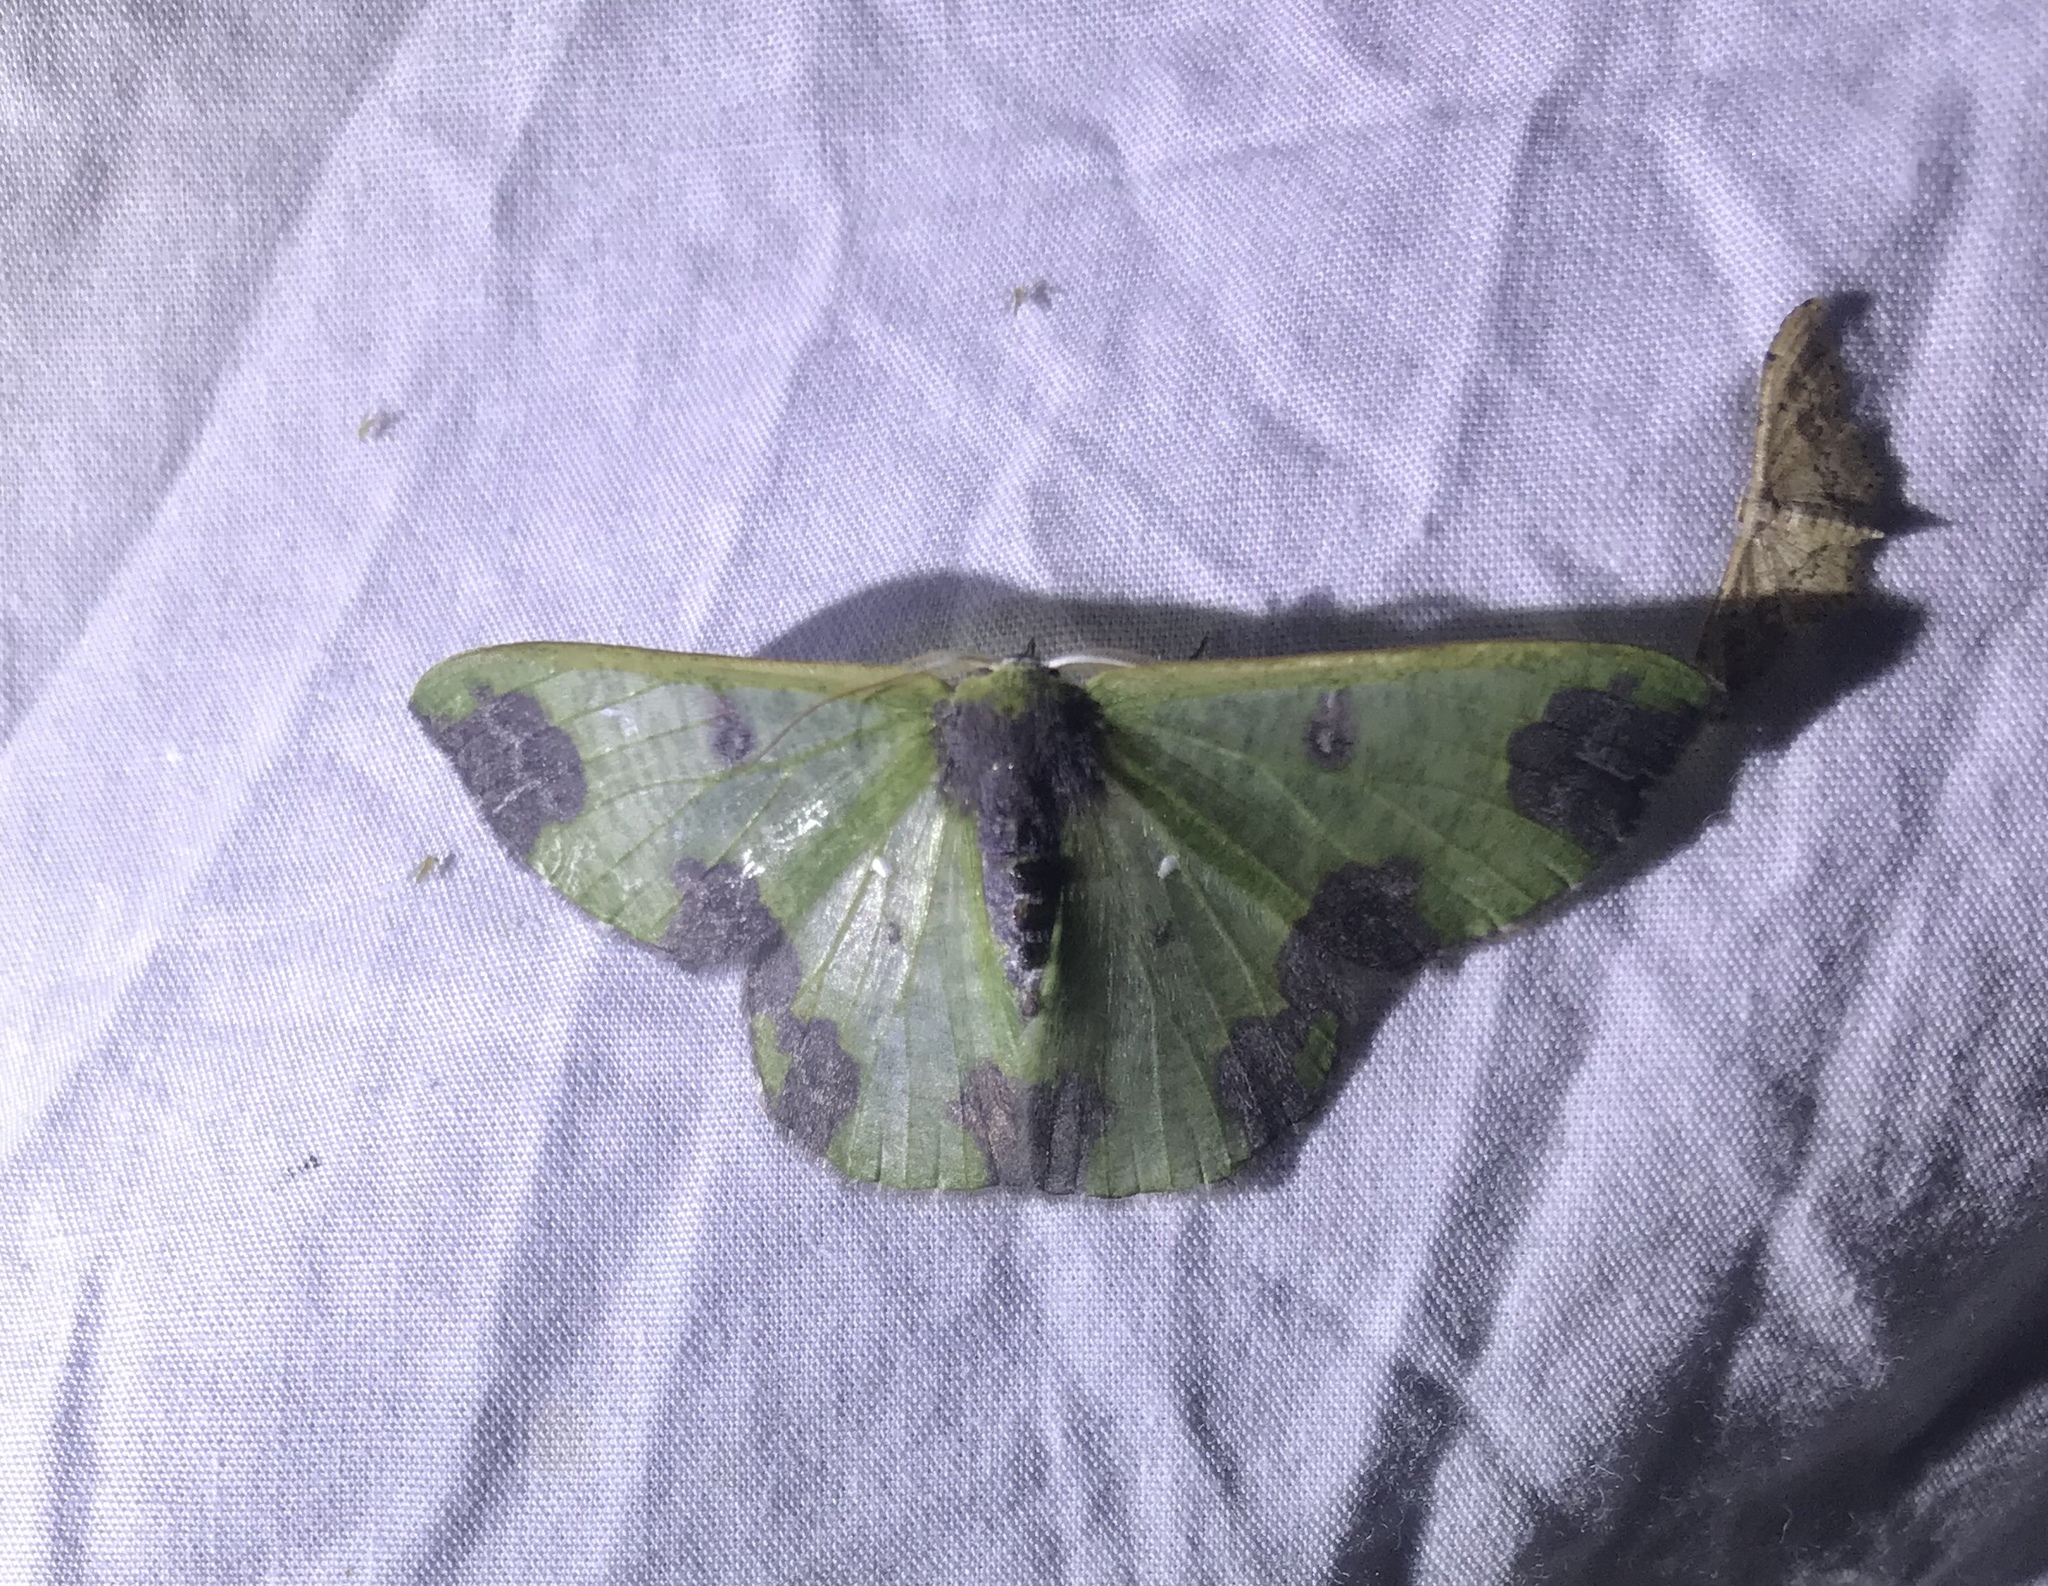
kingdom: Animalia
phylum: Arthropoda
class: Insecta
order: Lepidoptera
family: Geometridae
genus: Oospila
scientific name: Oospila atopochlora
